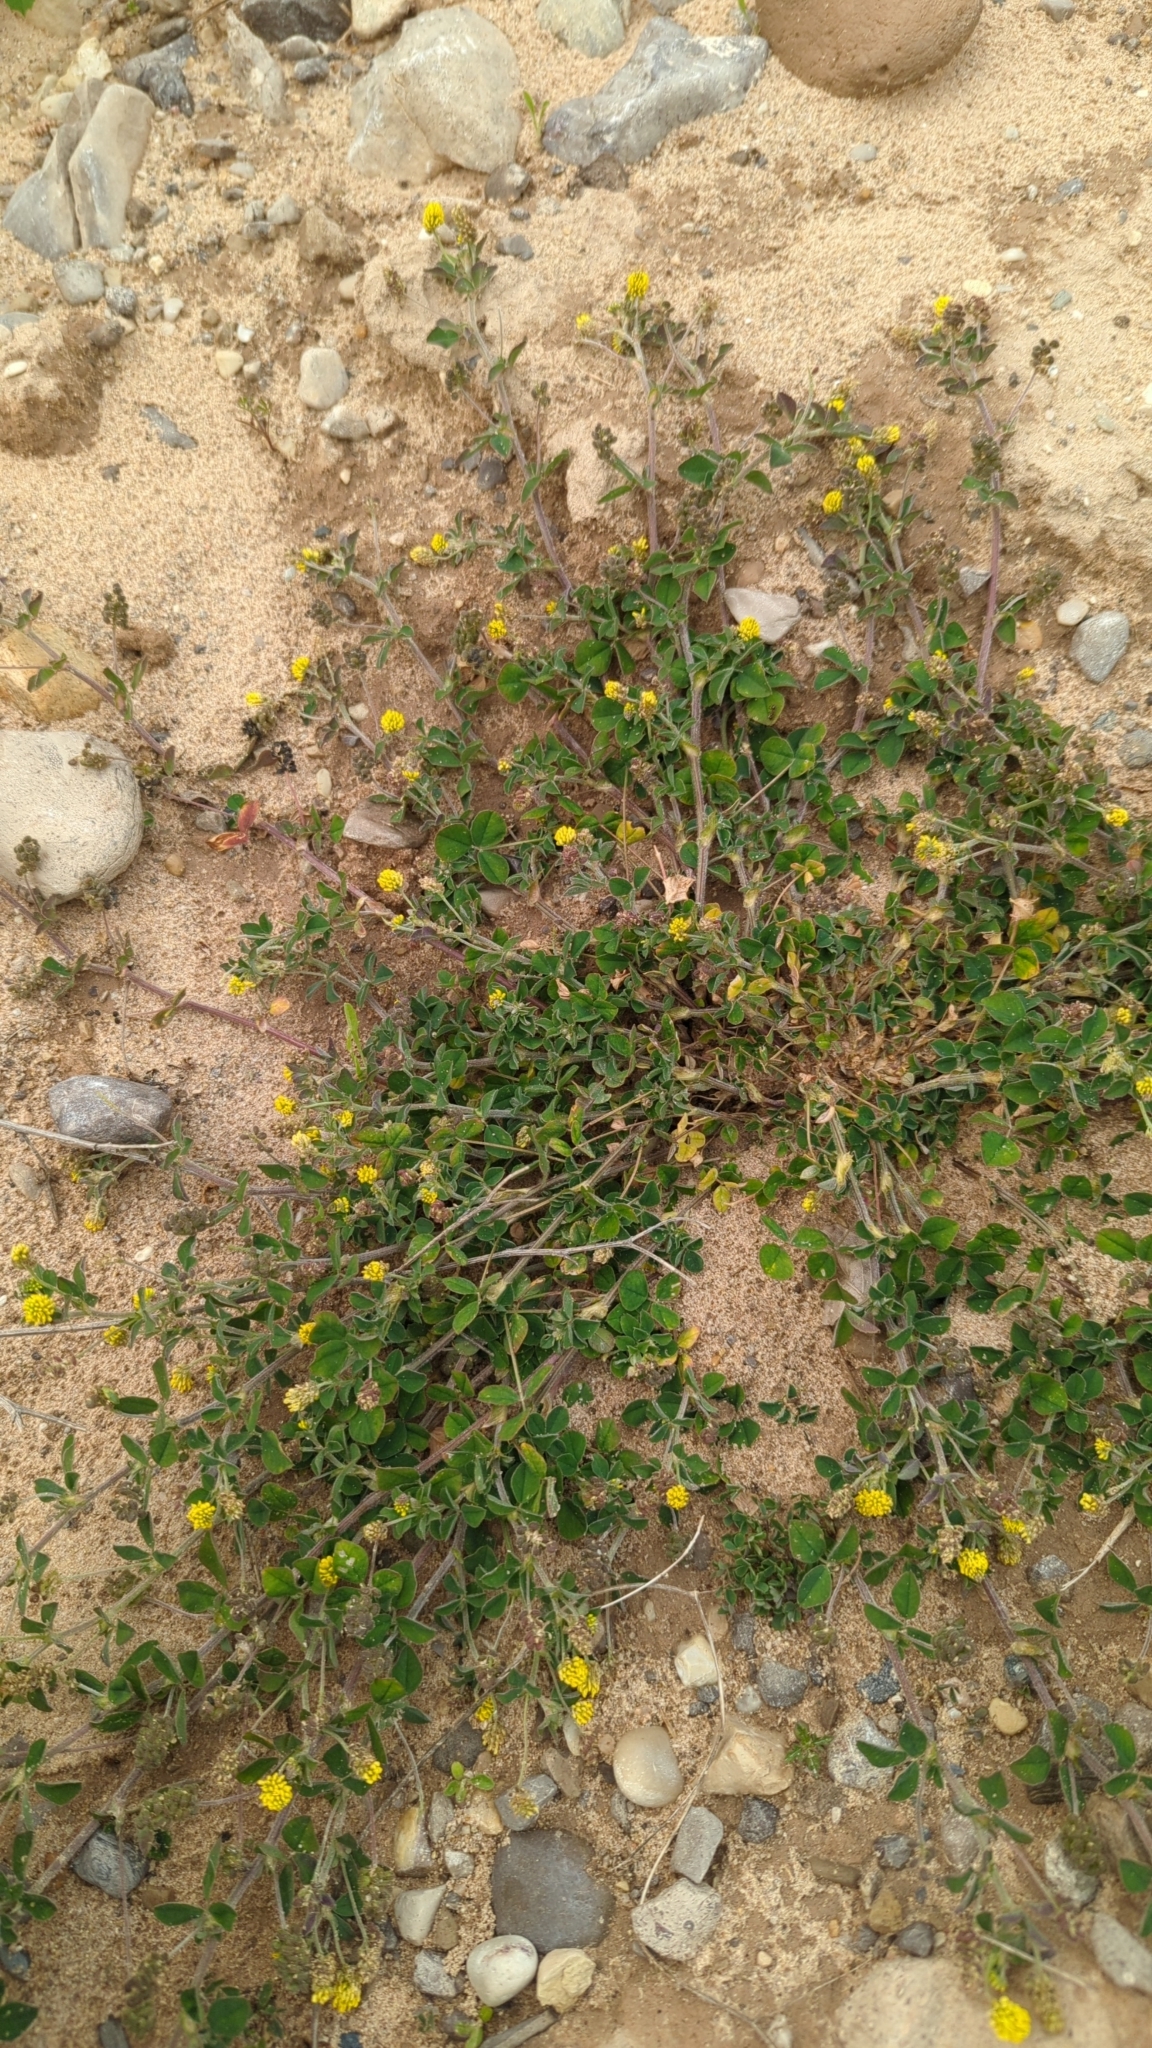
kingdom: Plantae
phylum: Tracheophyta
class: Magnoliopsida
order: Fabales
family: Fabaceae
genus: Medicago
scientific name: Medicago lupulina
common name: Black medick
